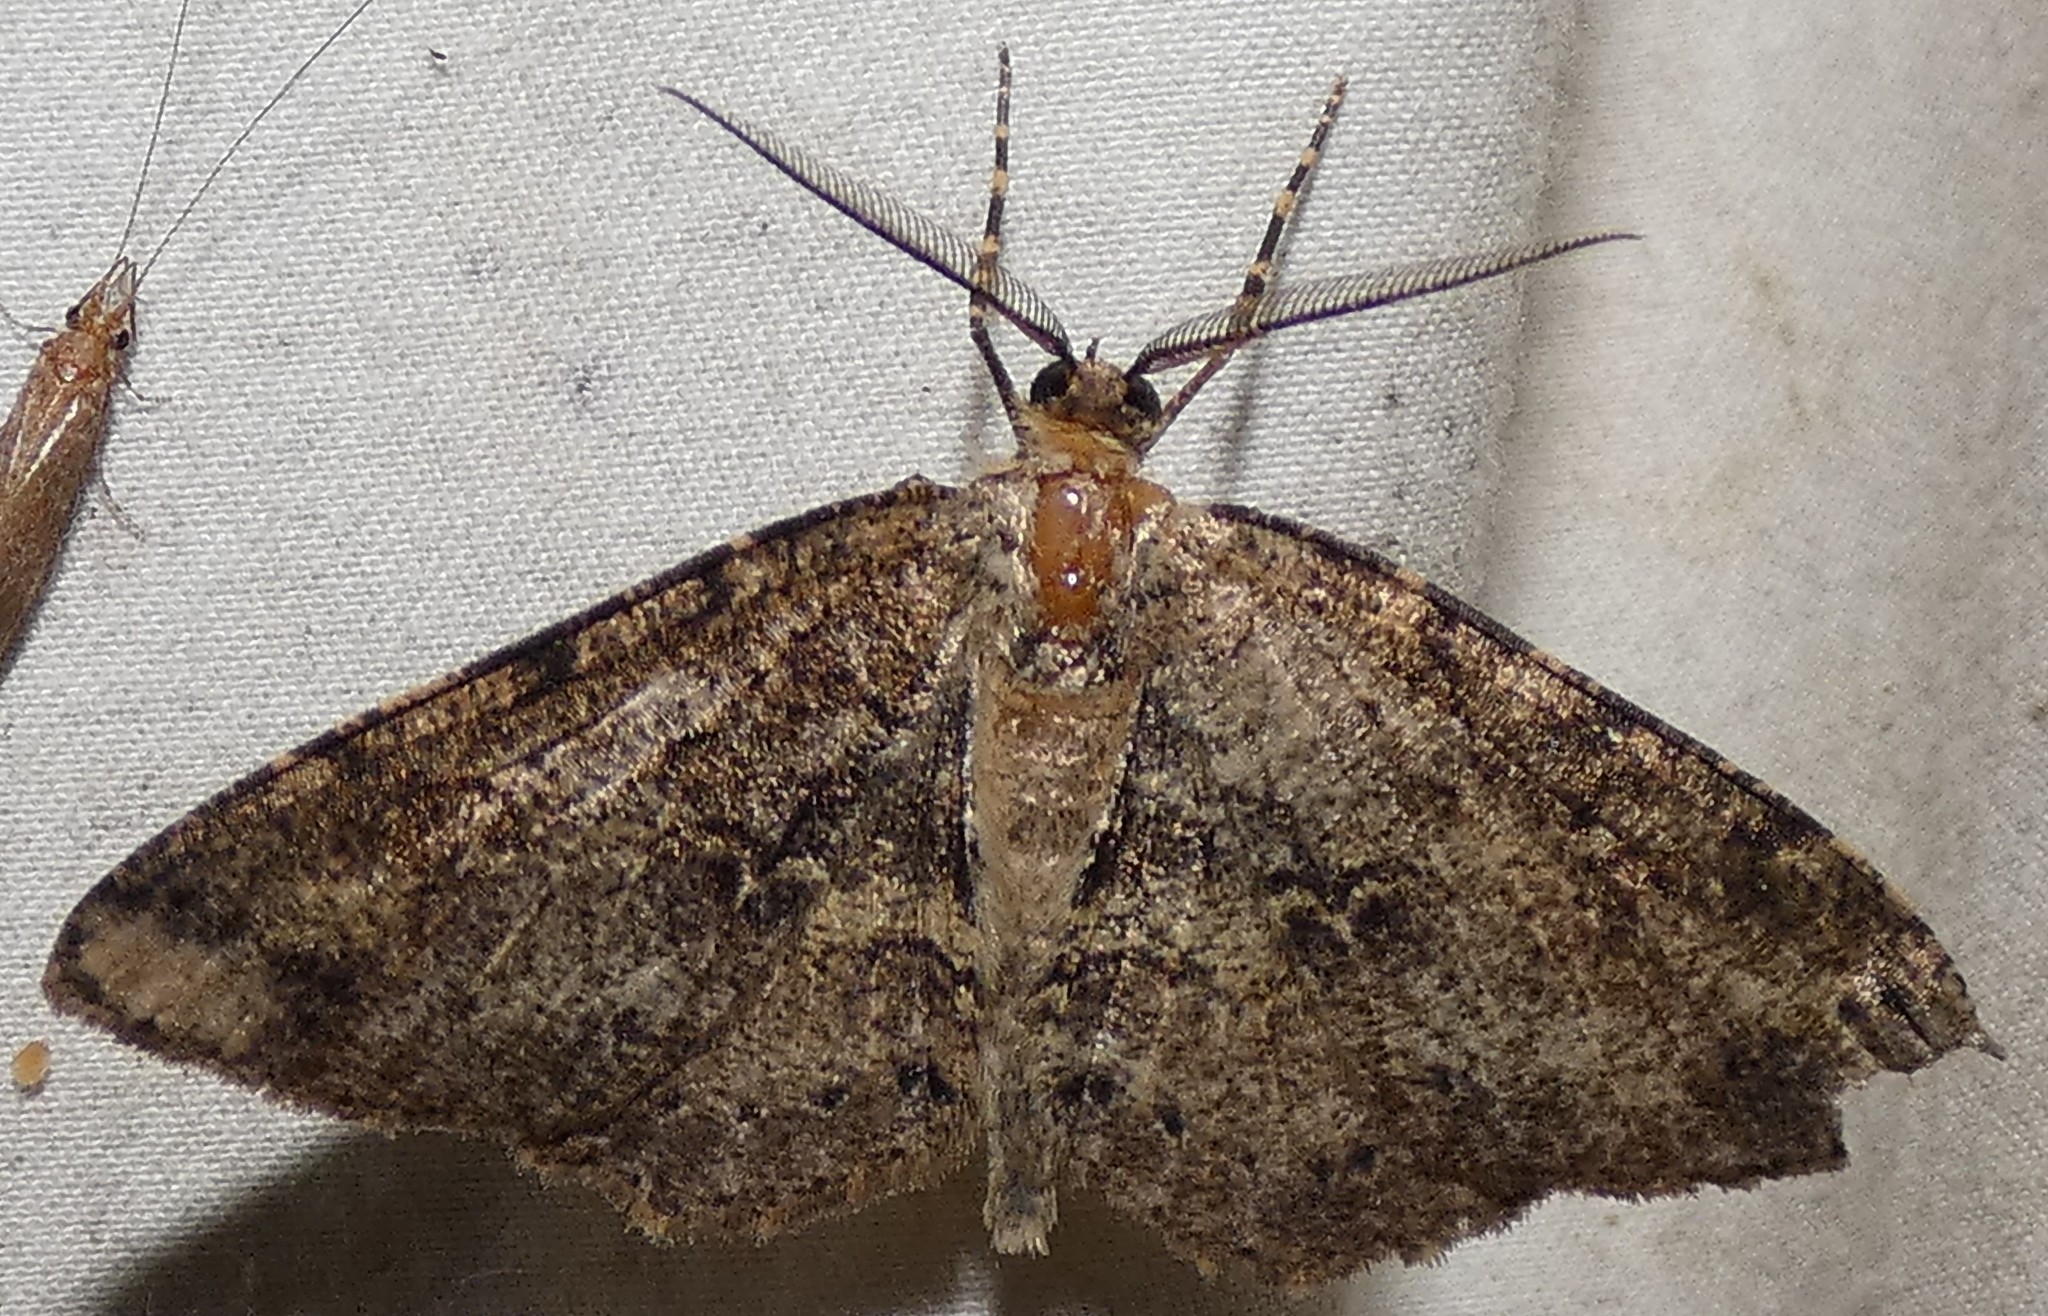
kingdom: Animalia
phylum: Arthropoda
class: Insecta
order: Lepidoptera
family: Geometridae
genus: Melanolophia
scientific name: Melanolophia canadaria
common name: Canadian melanolophia
